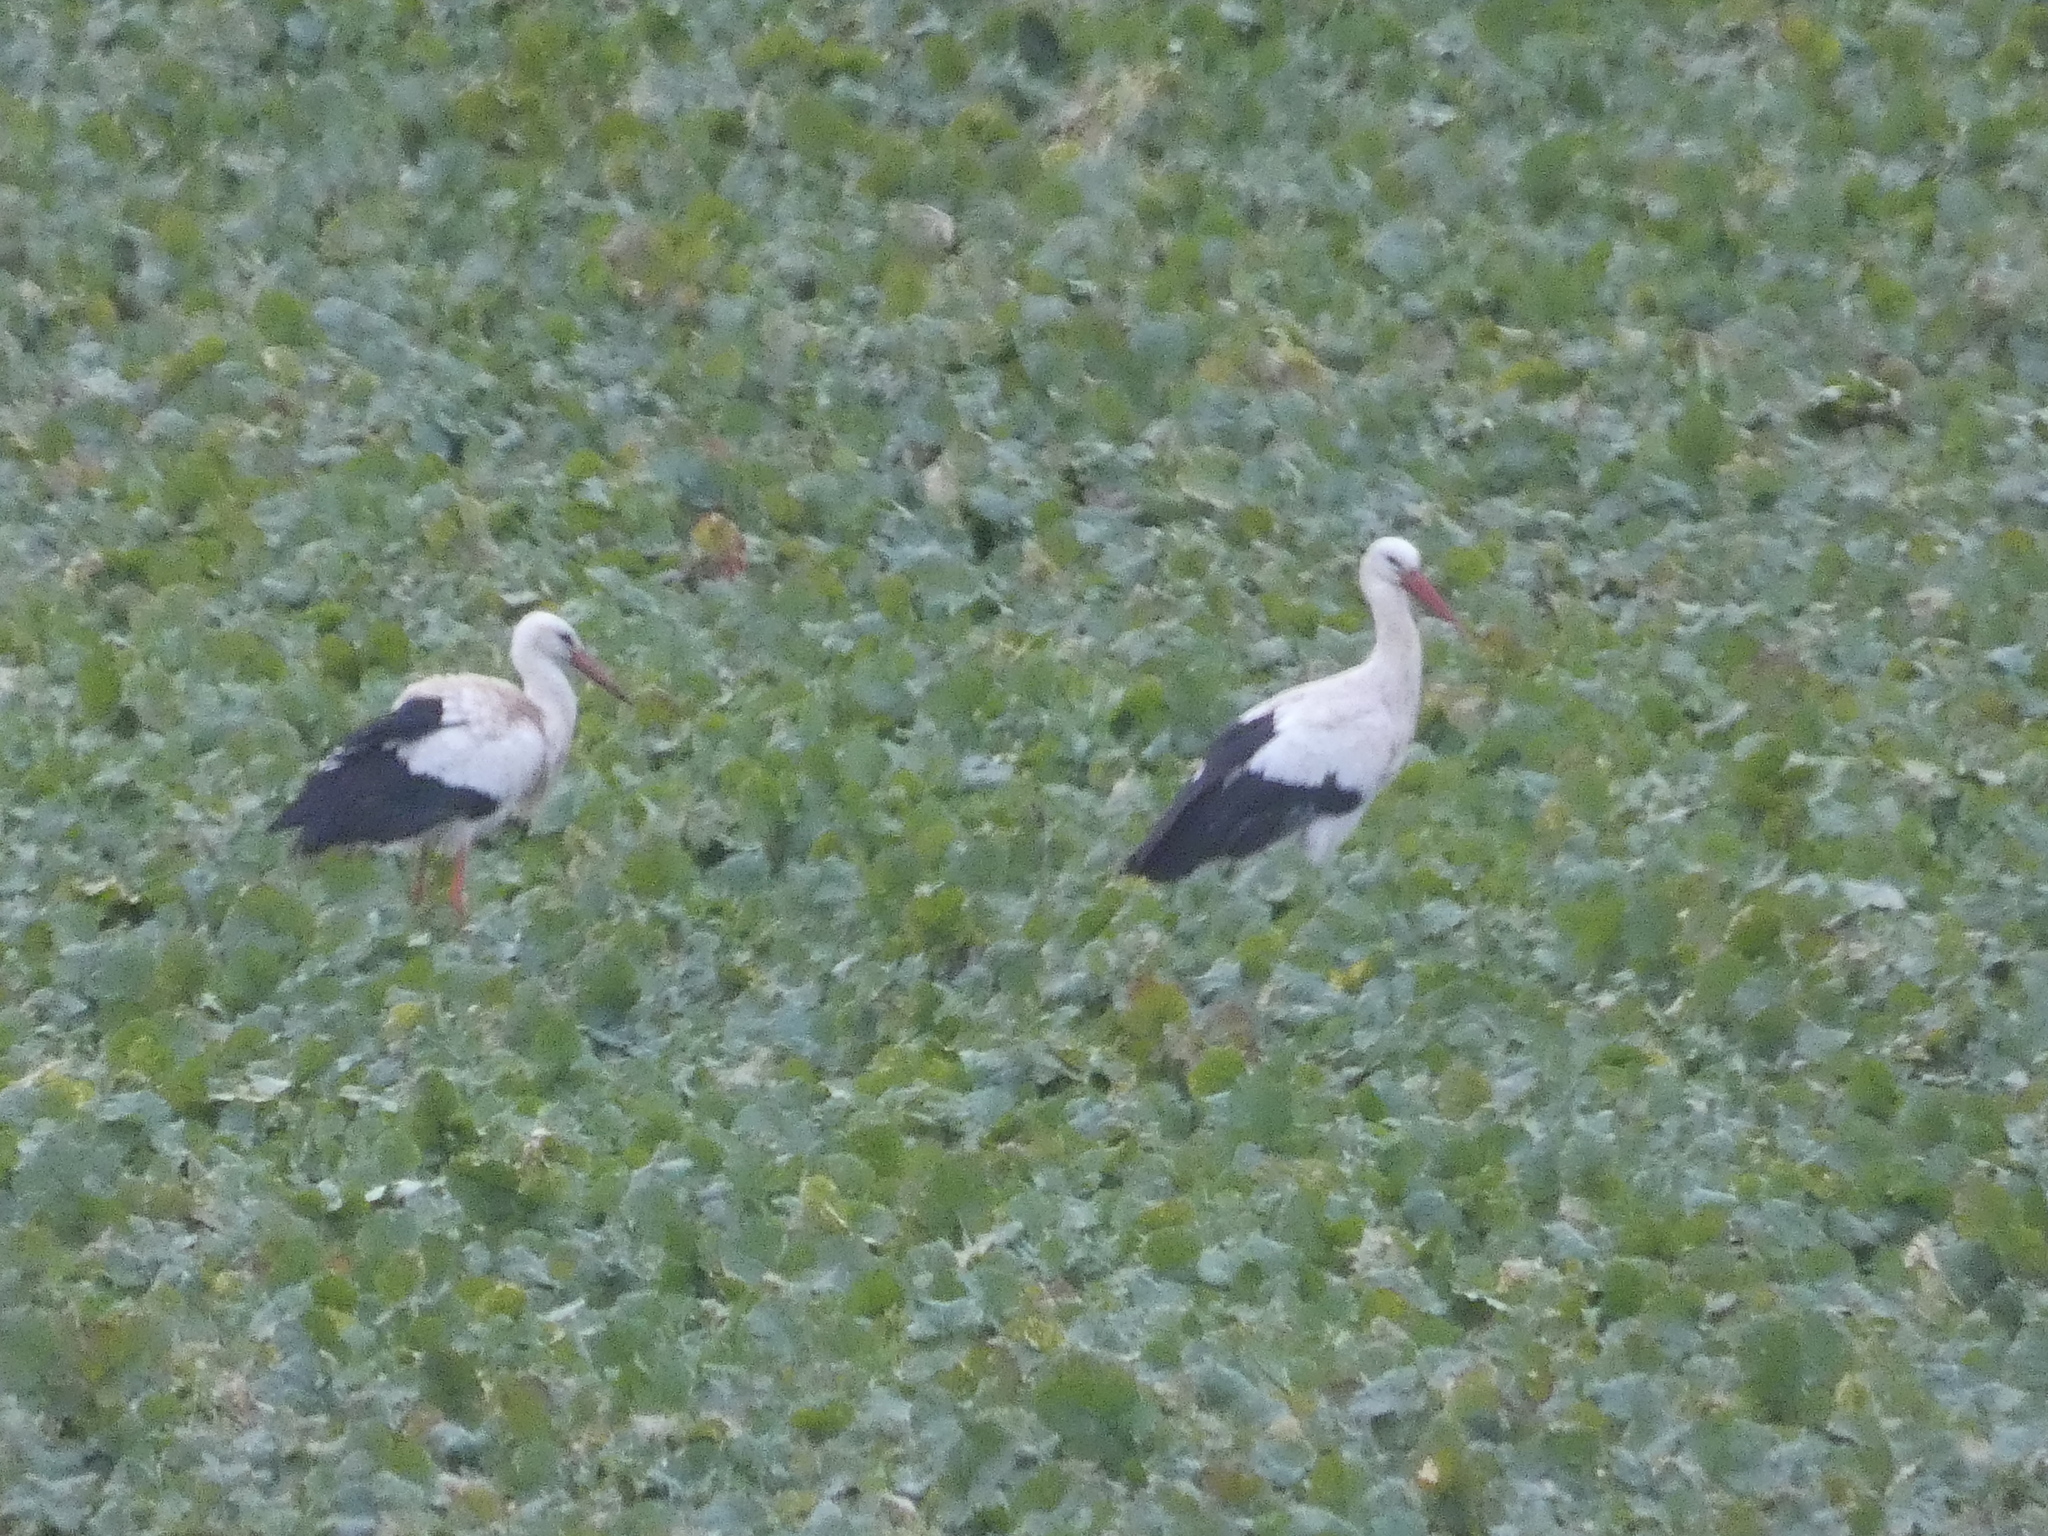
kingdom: Animalia
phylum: Chordata
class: Aves
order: Ciconiiformes
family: Ciconiidae
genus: Ciconia
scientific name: Ciconia ciconia
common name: White stork
